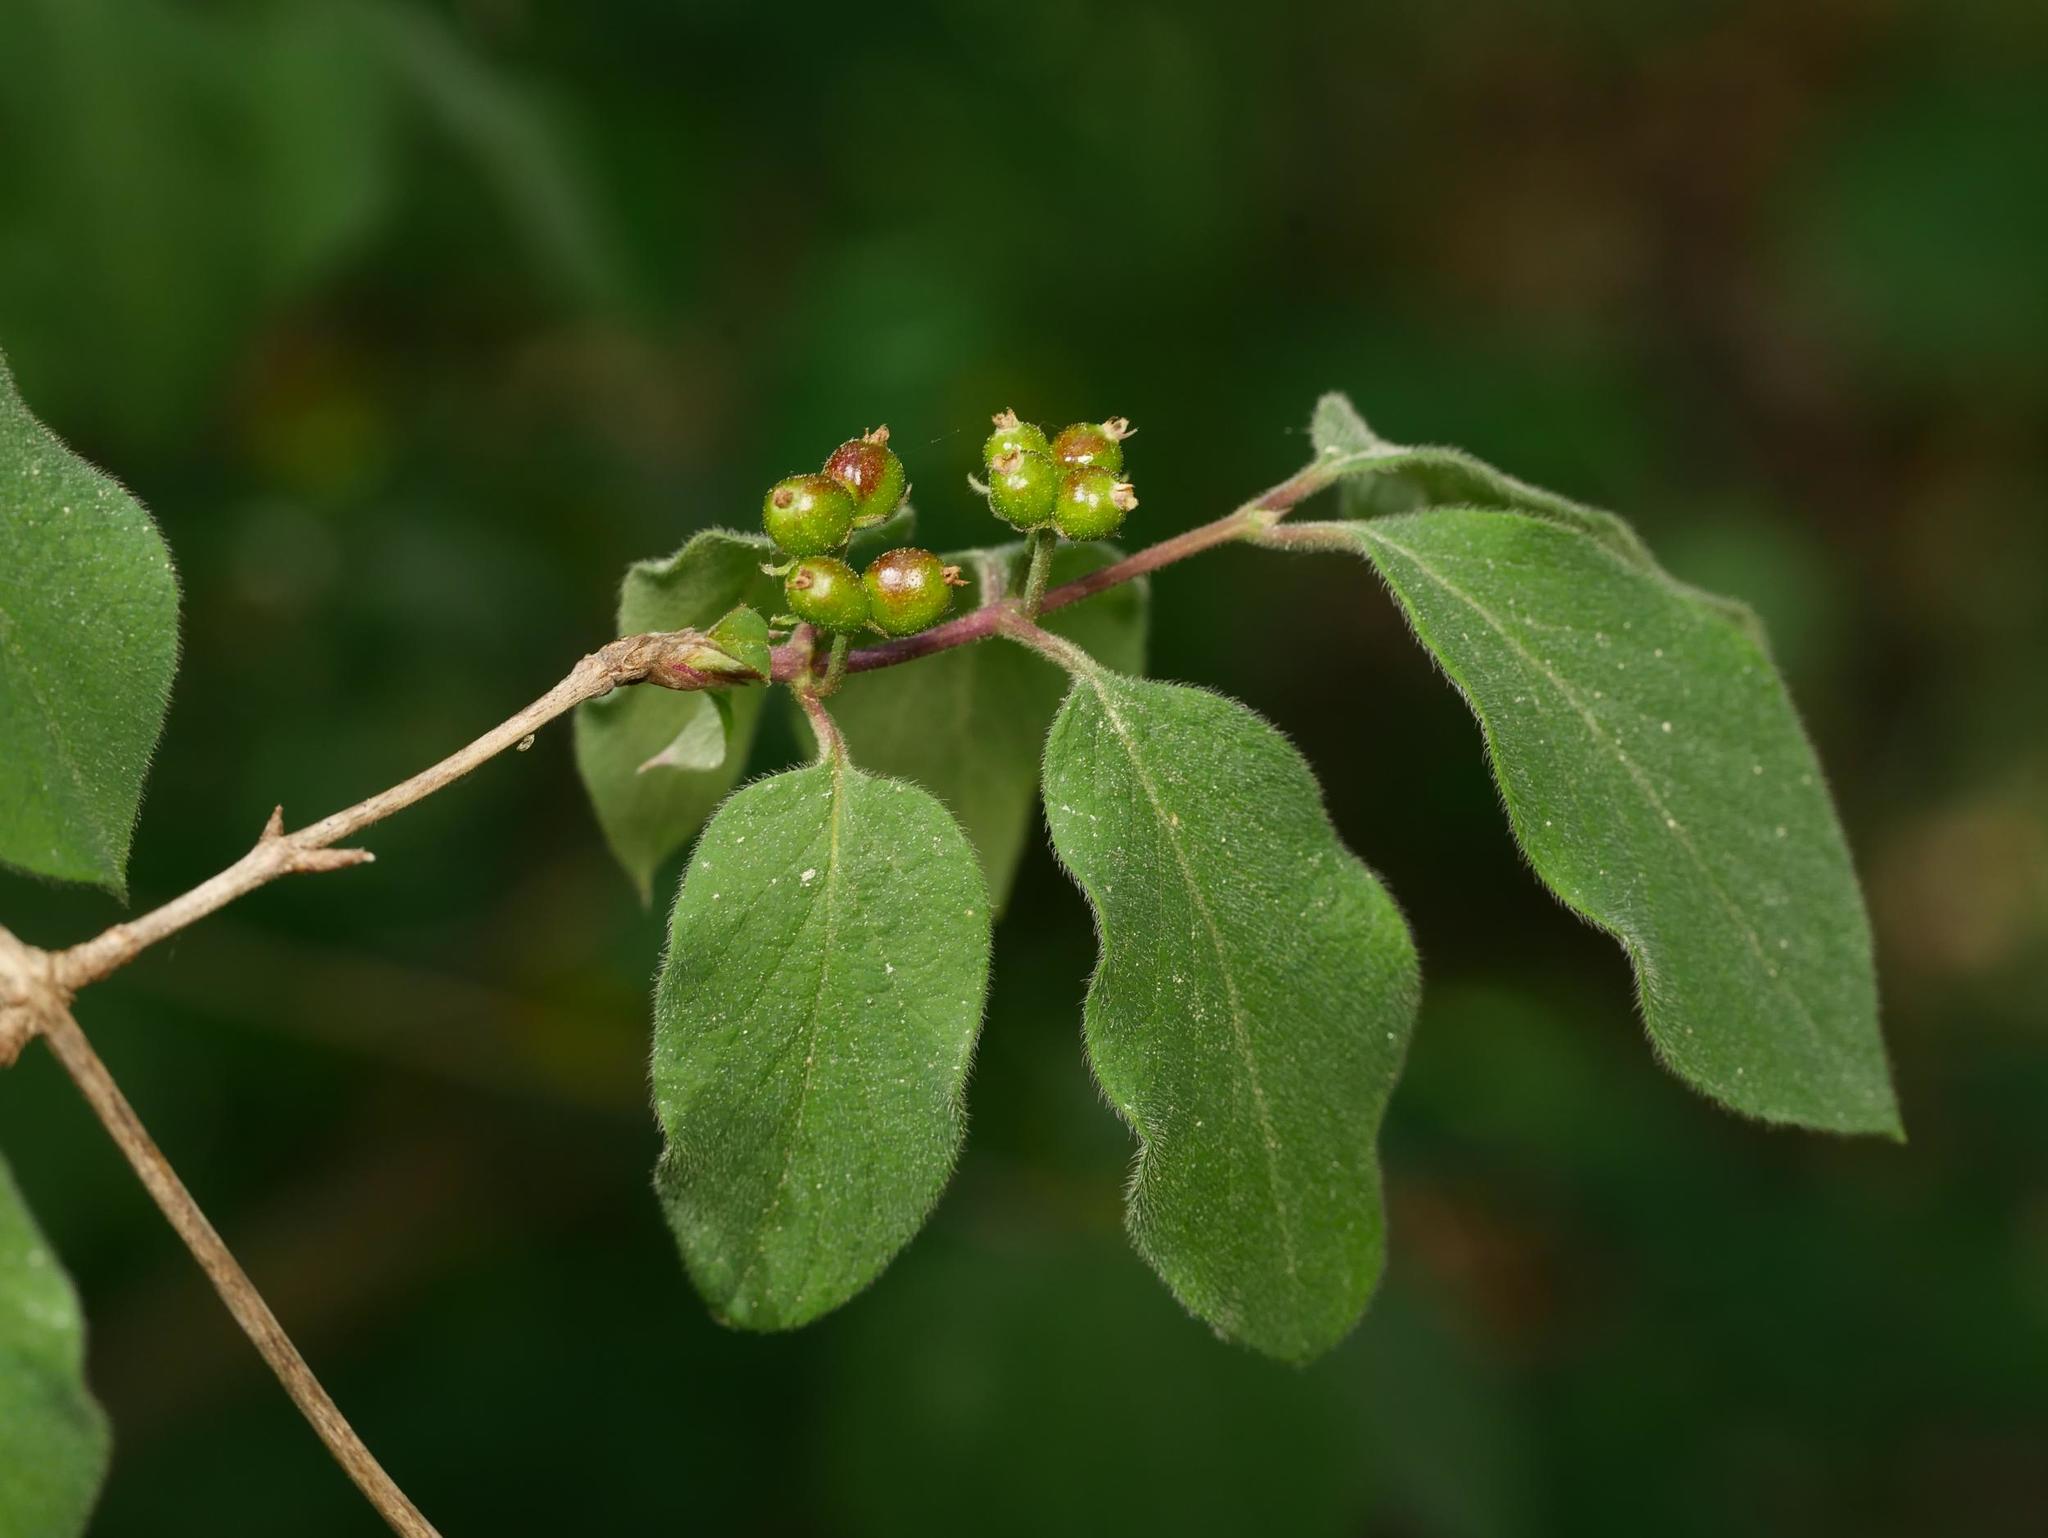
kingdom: Plantae
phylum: Tracheophyta
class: Magnoliopsida
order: Dipsacales
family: Caprifoliaceae
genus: Lonicera
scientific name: Lonicera xylosteum
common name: Fly honeysuckle
